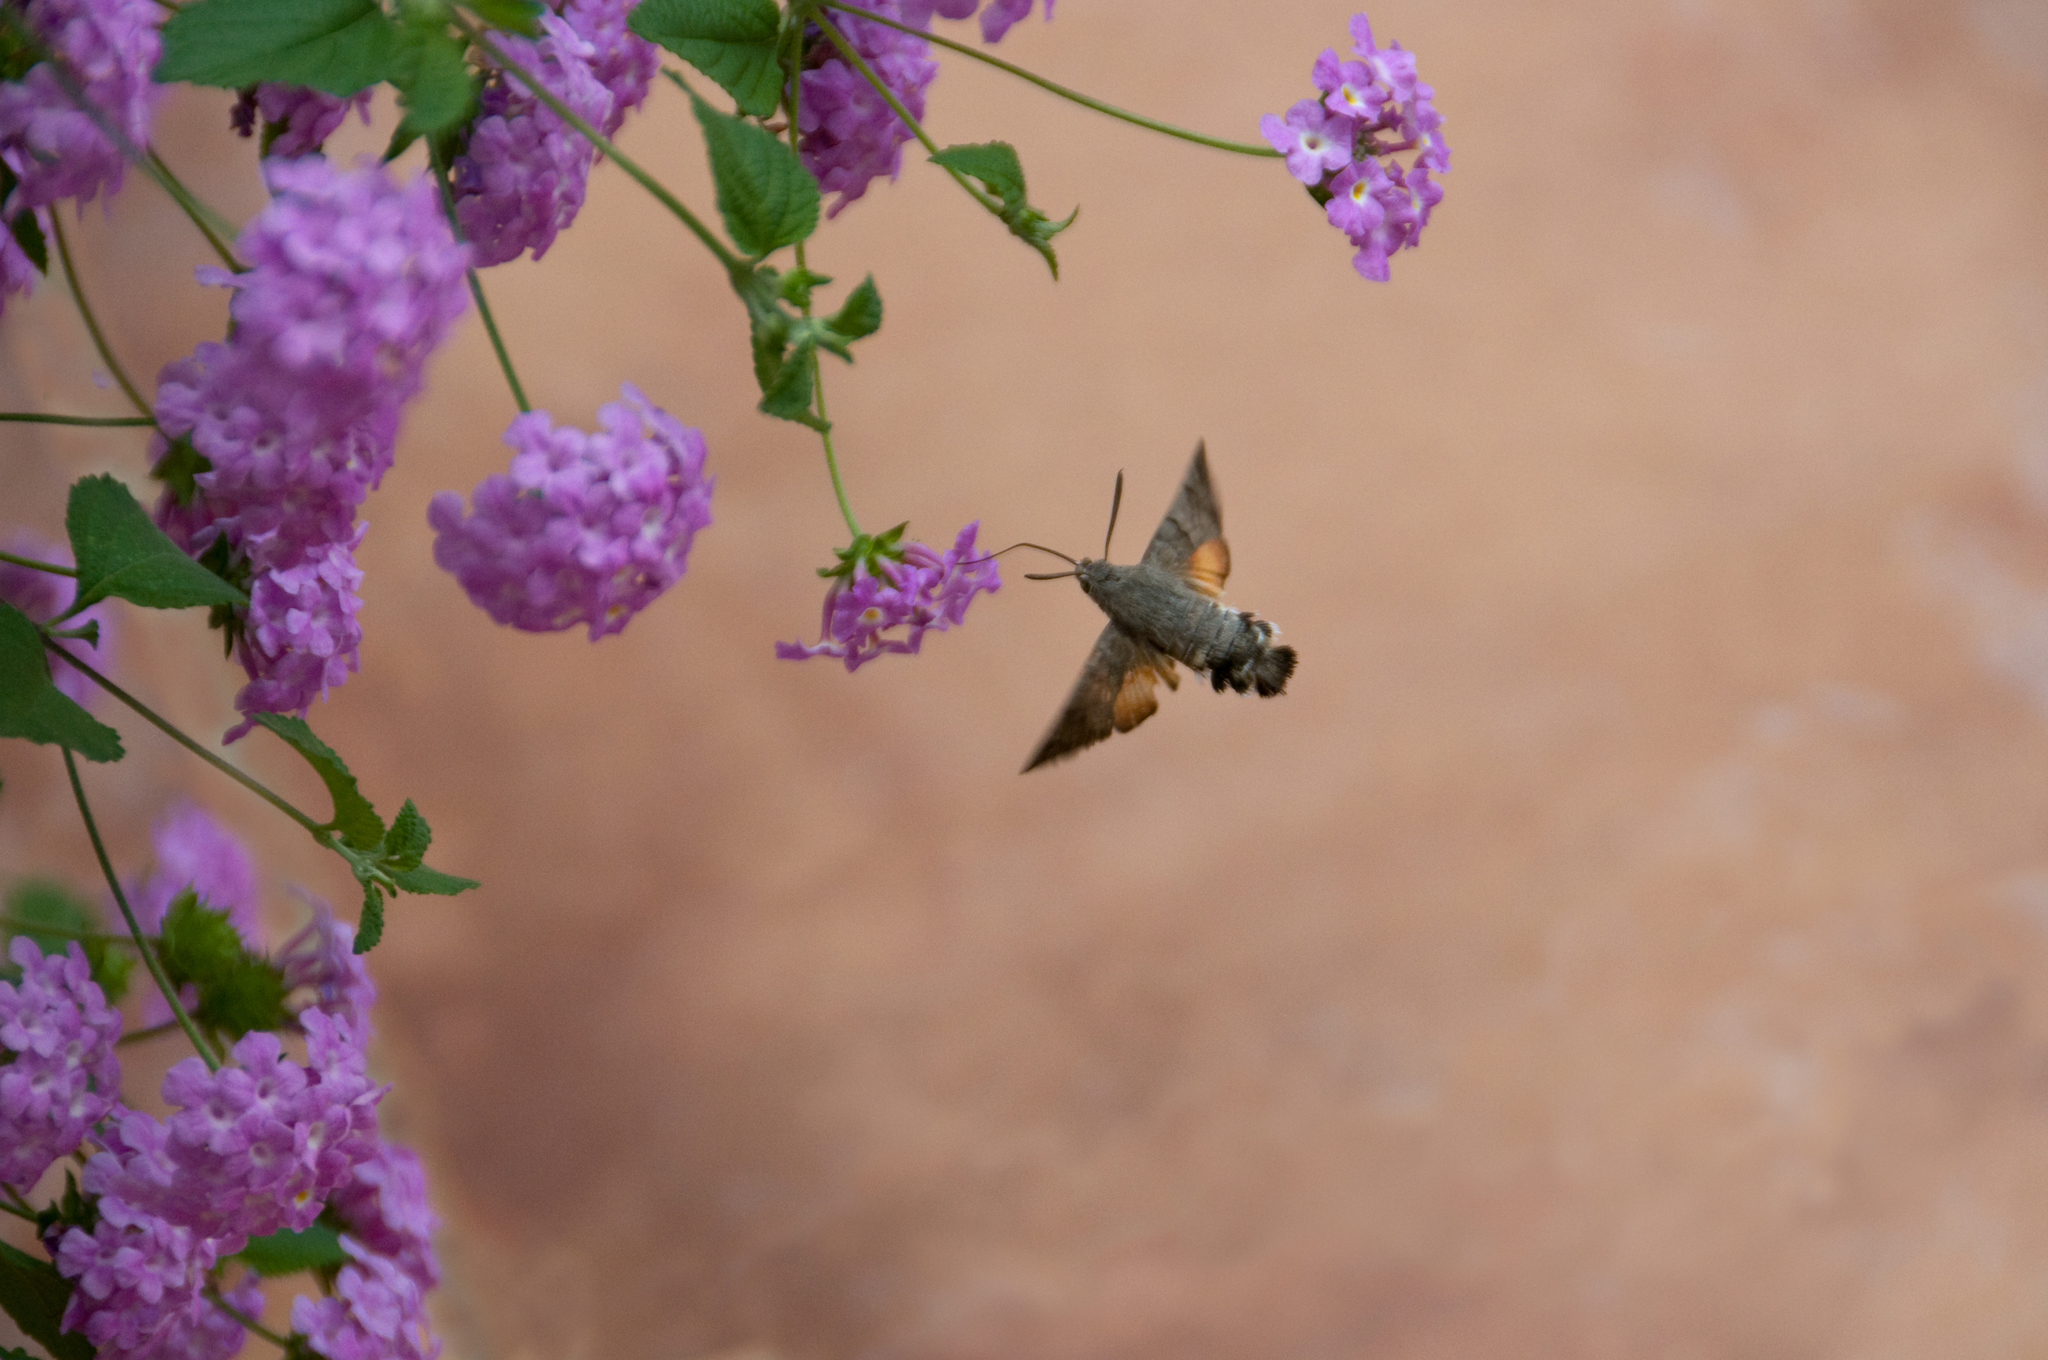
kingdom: Animalia
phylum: Arthropoda
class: Insecta
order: Lepidoptera
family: Sphingidae
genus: Macroglossum
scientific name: Macroglossum stellatarum
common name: Humming-bird hawk-moth
